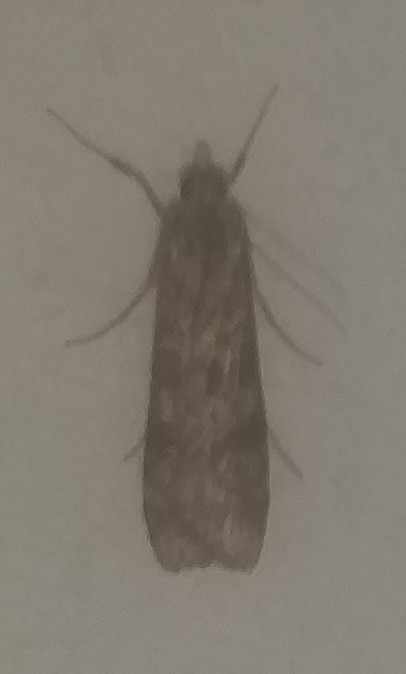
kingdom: Animalia
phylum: Arthropoda
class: Insecta
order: Lepidoptera
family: Crambidae
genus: Nomophila
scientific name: Nomophila nearctica
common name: American rush veneer
